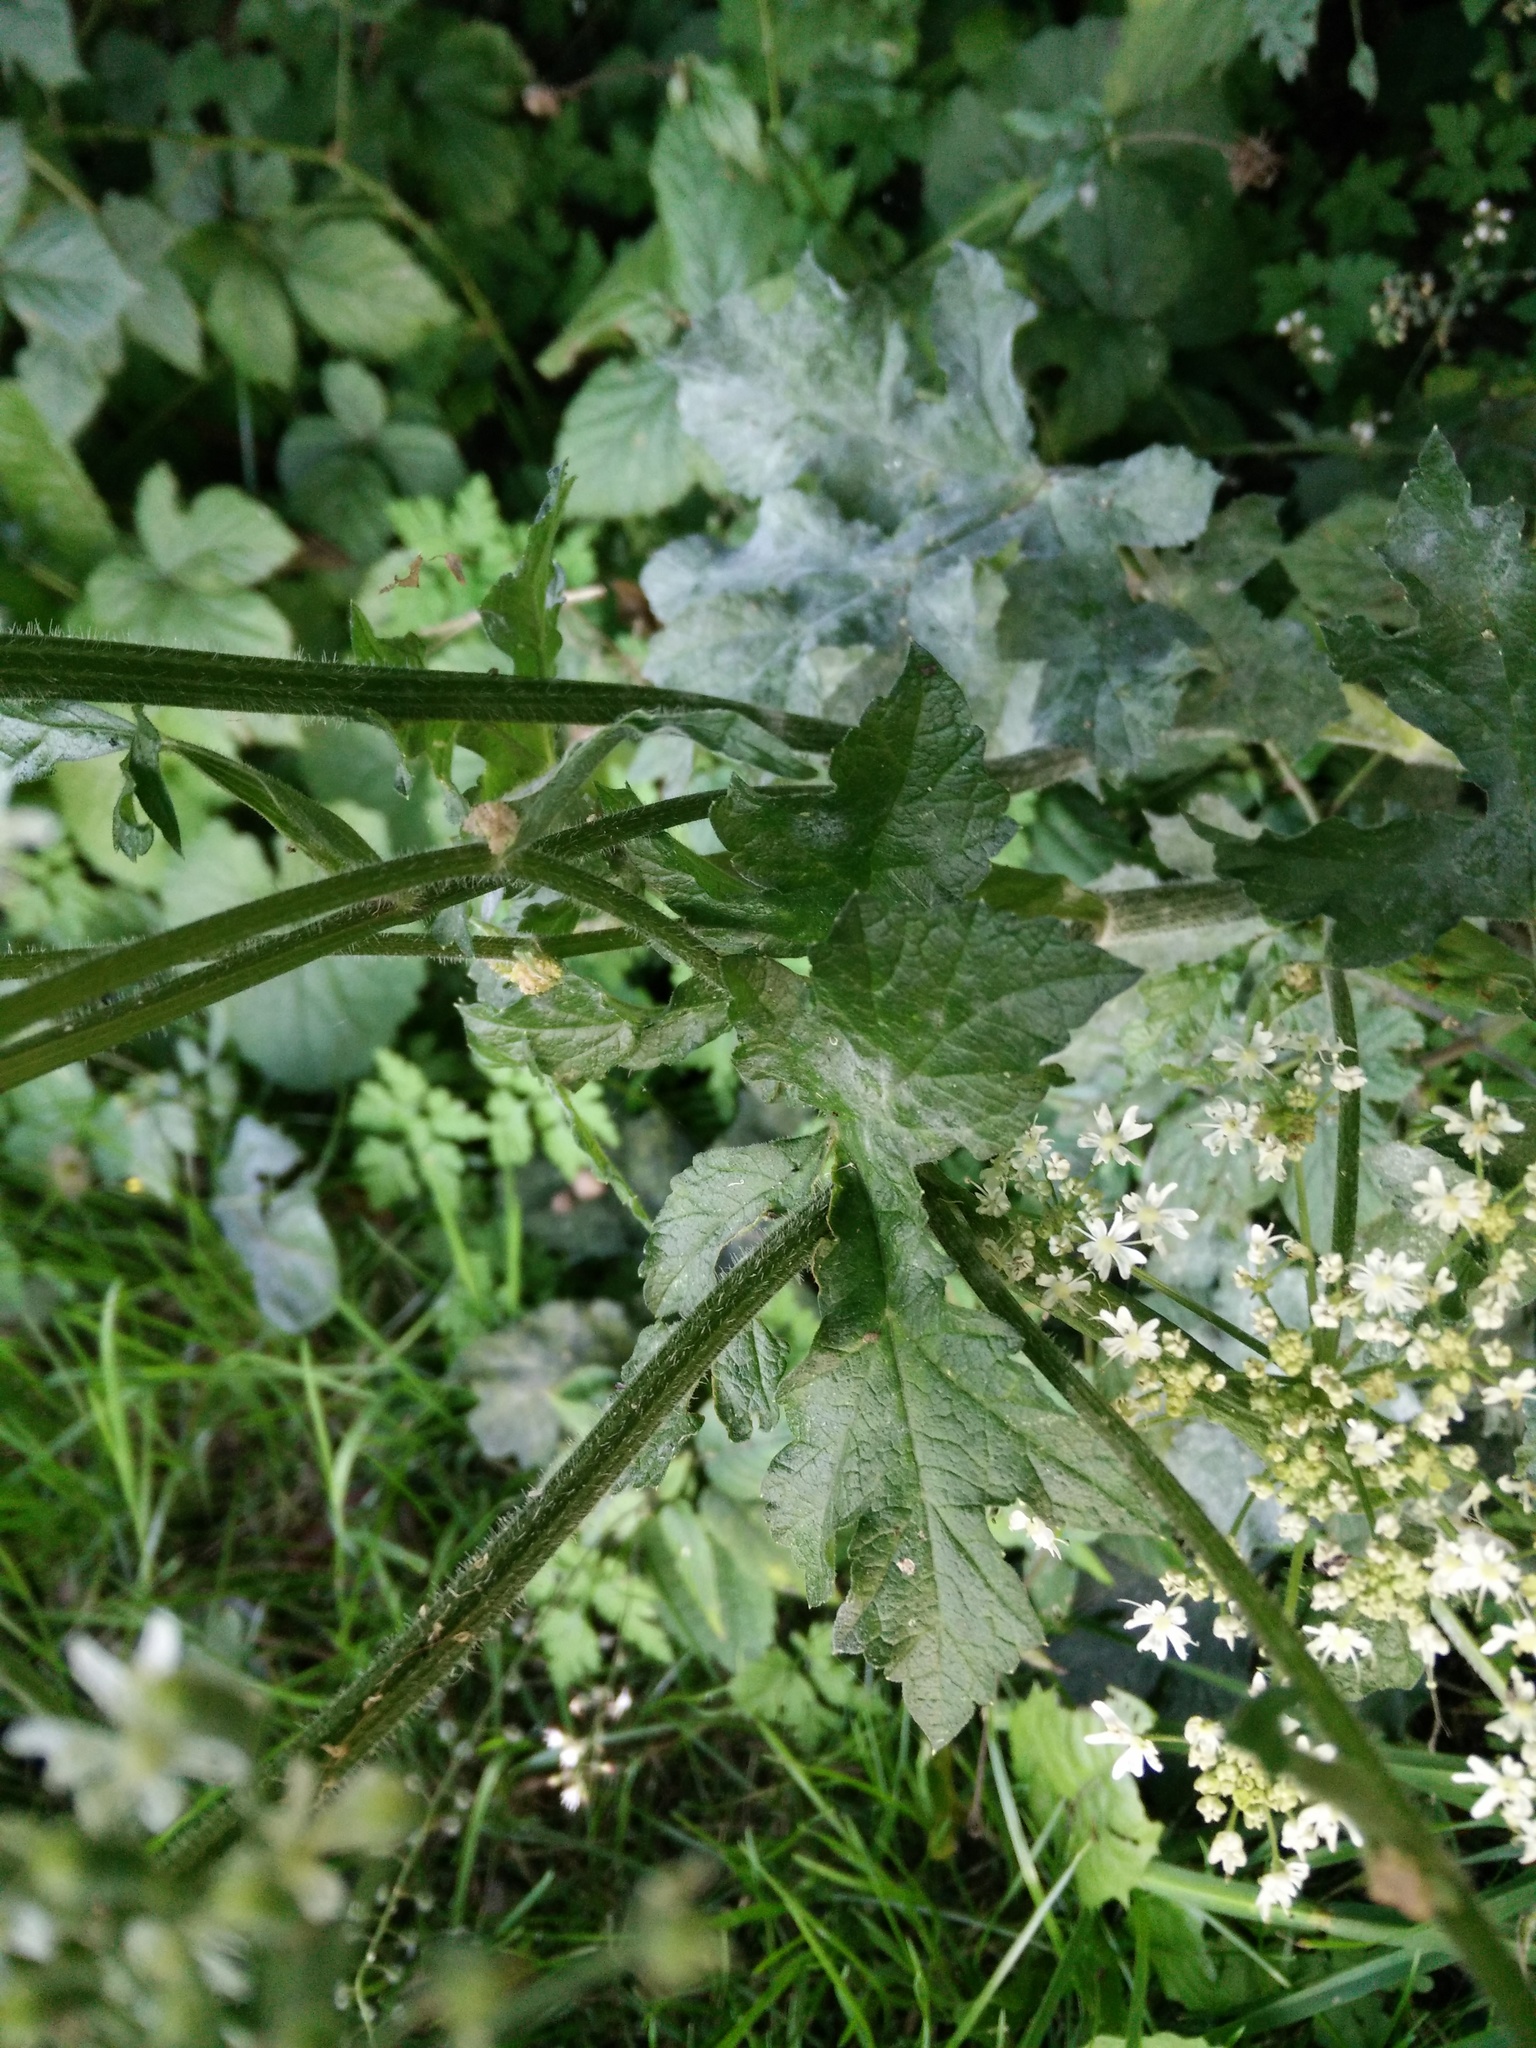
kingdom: Plantae
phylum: Tracheophyta
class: Magnoliopsida
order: Apiales
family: Apiaceae
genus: Heracleum
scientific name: Heracleum sphondylium
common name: Hogweed
